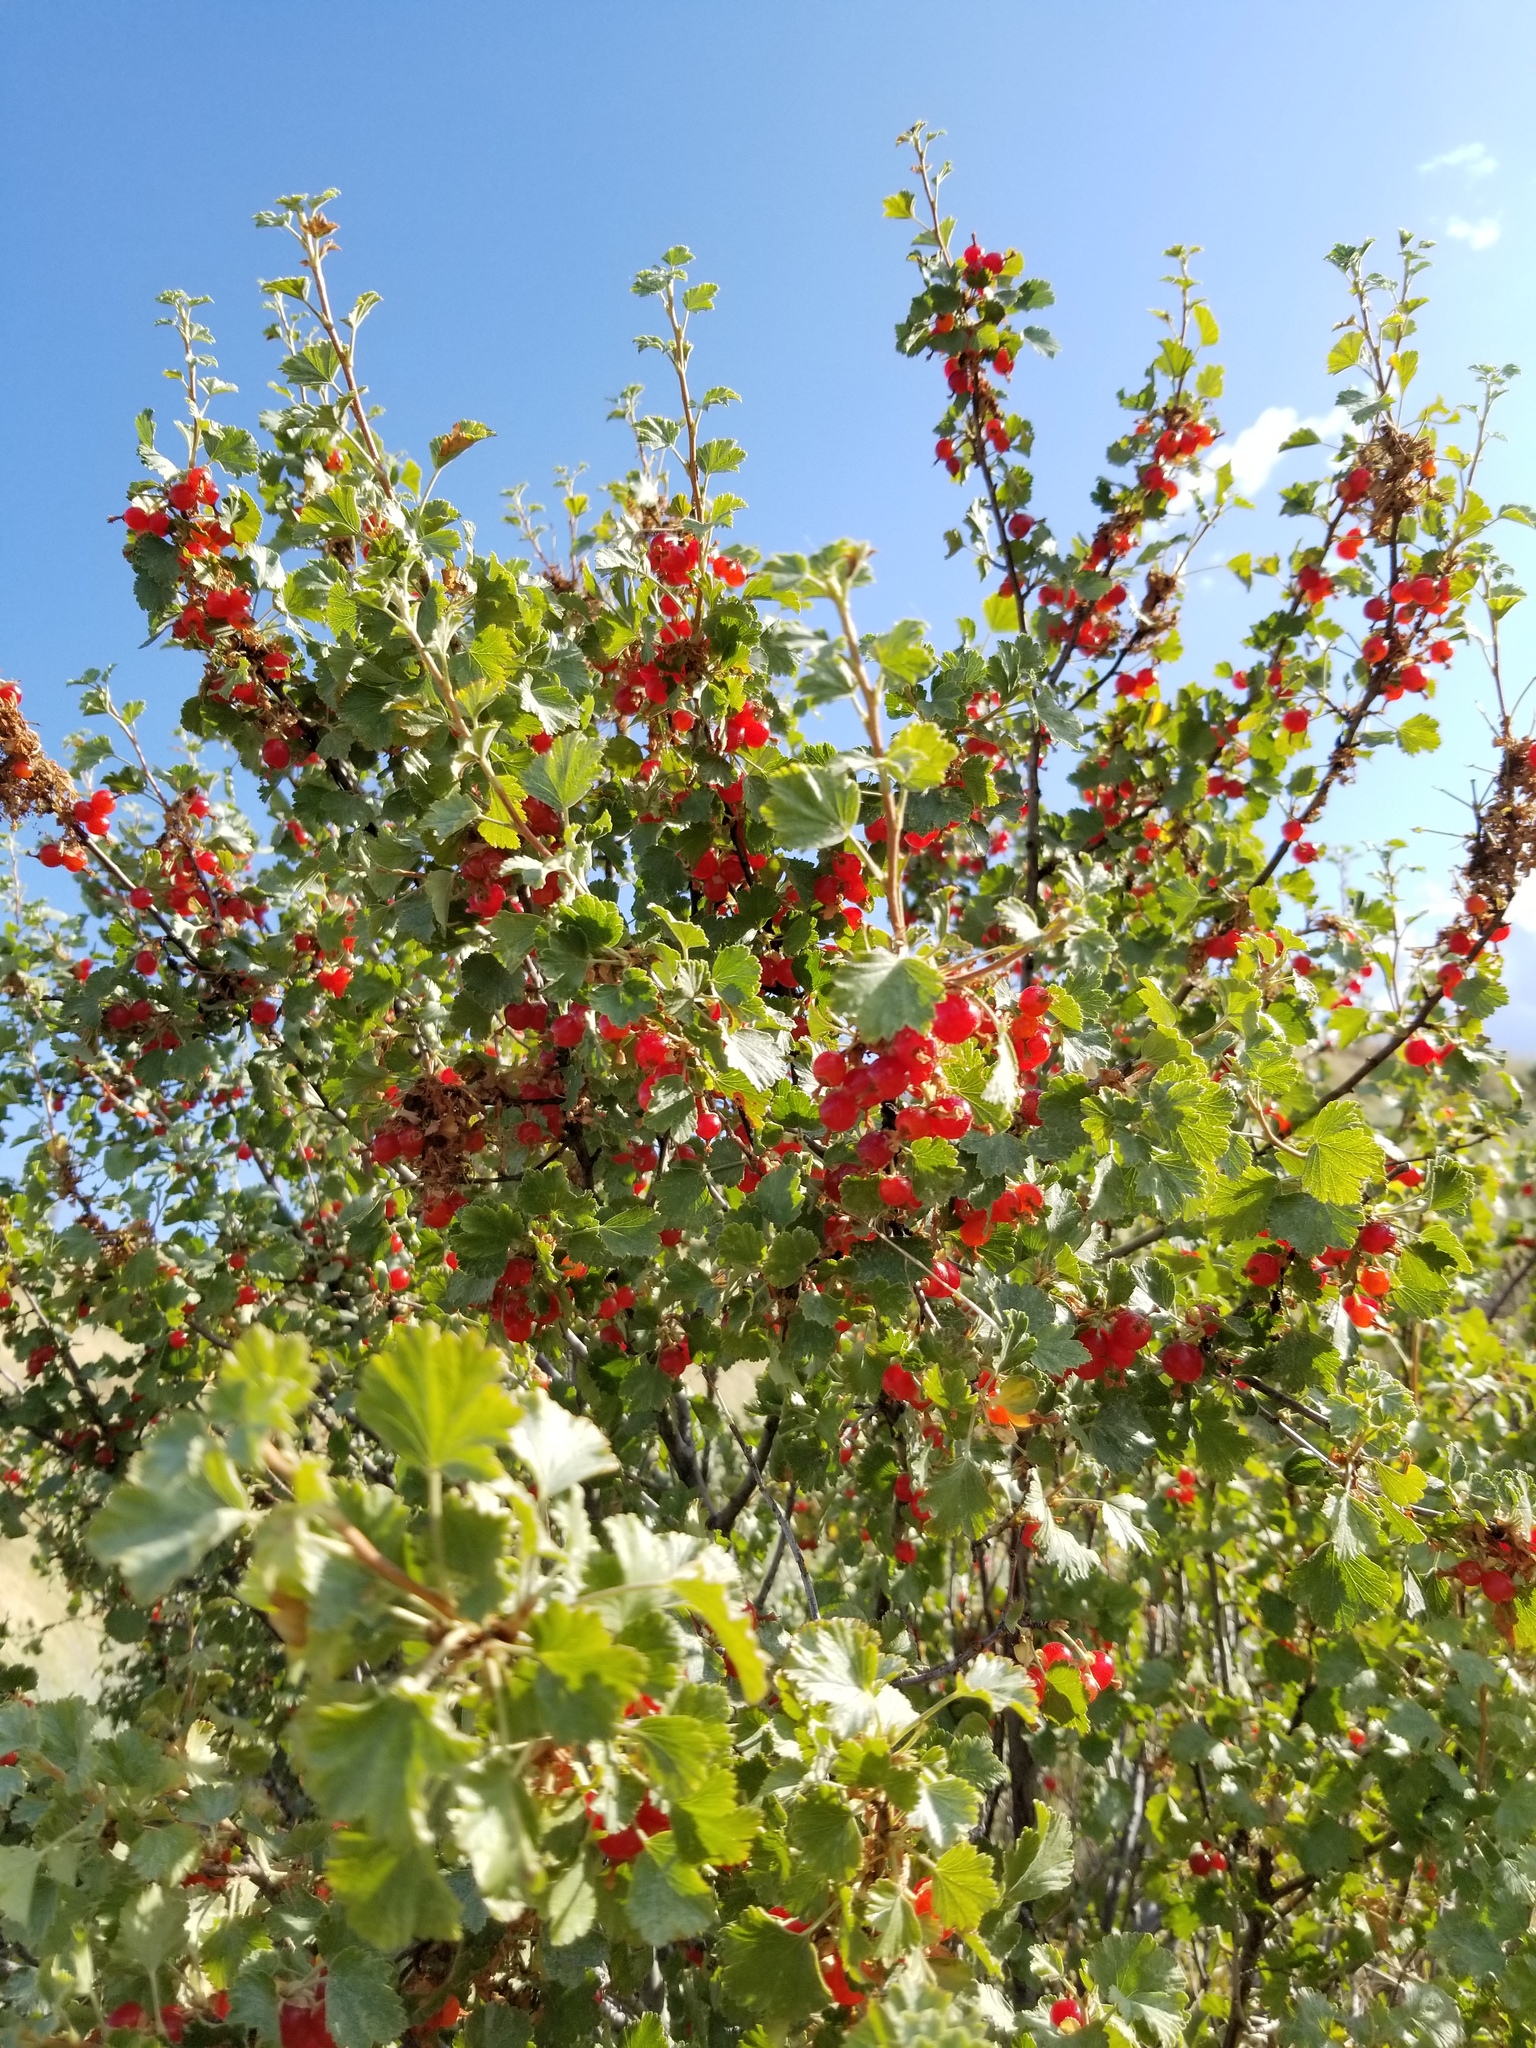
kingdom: Plantae
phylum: Tracheophyta
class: Magnoliopsida
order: Saxifragales
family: Grossulariaceae
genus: Ribes
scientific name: Ribes cereum
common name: Wax currant
